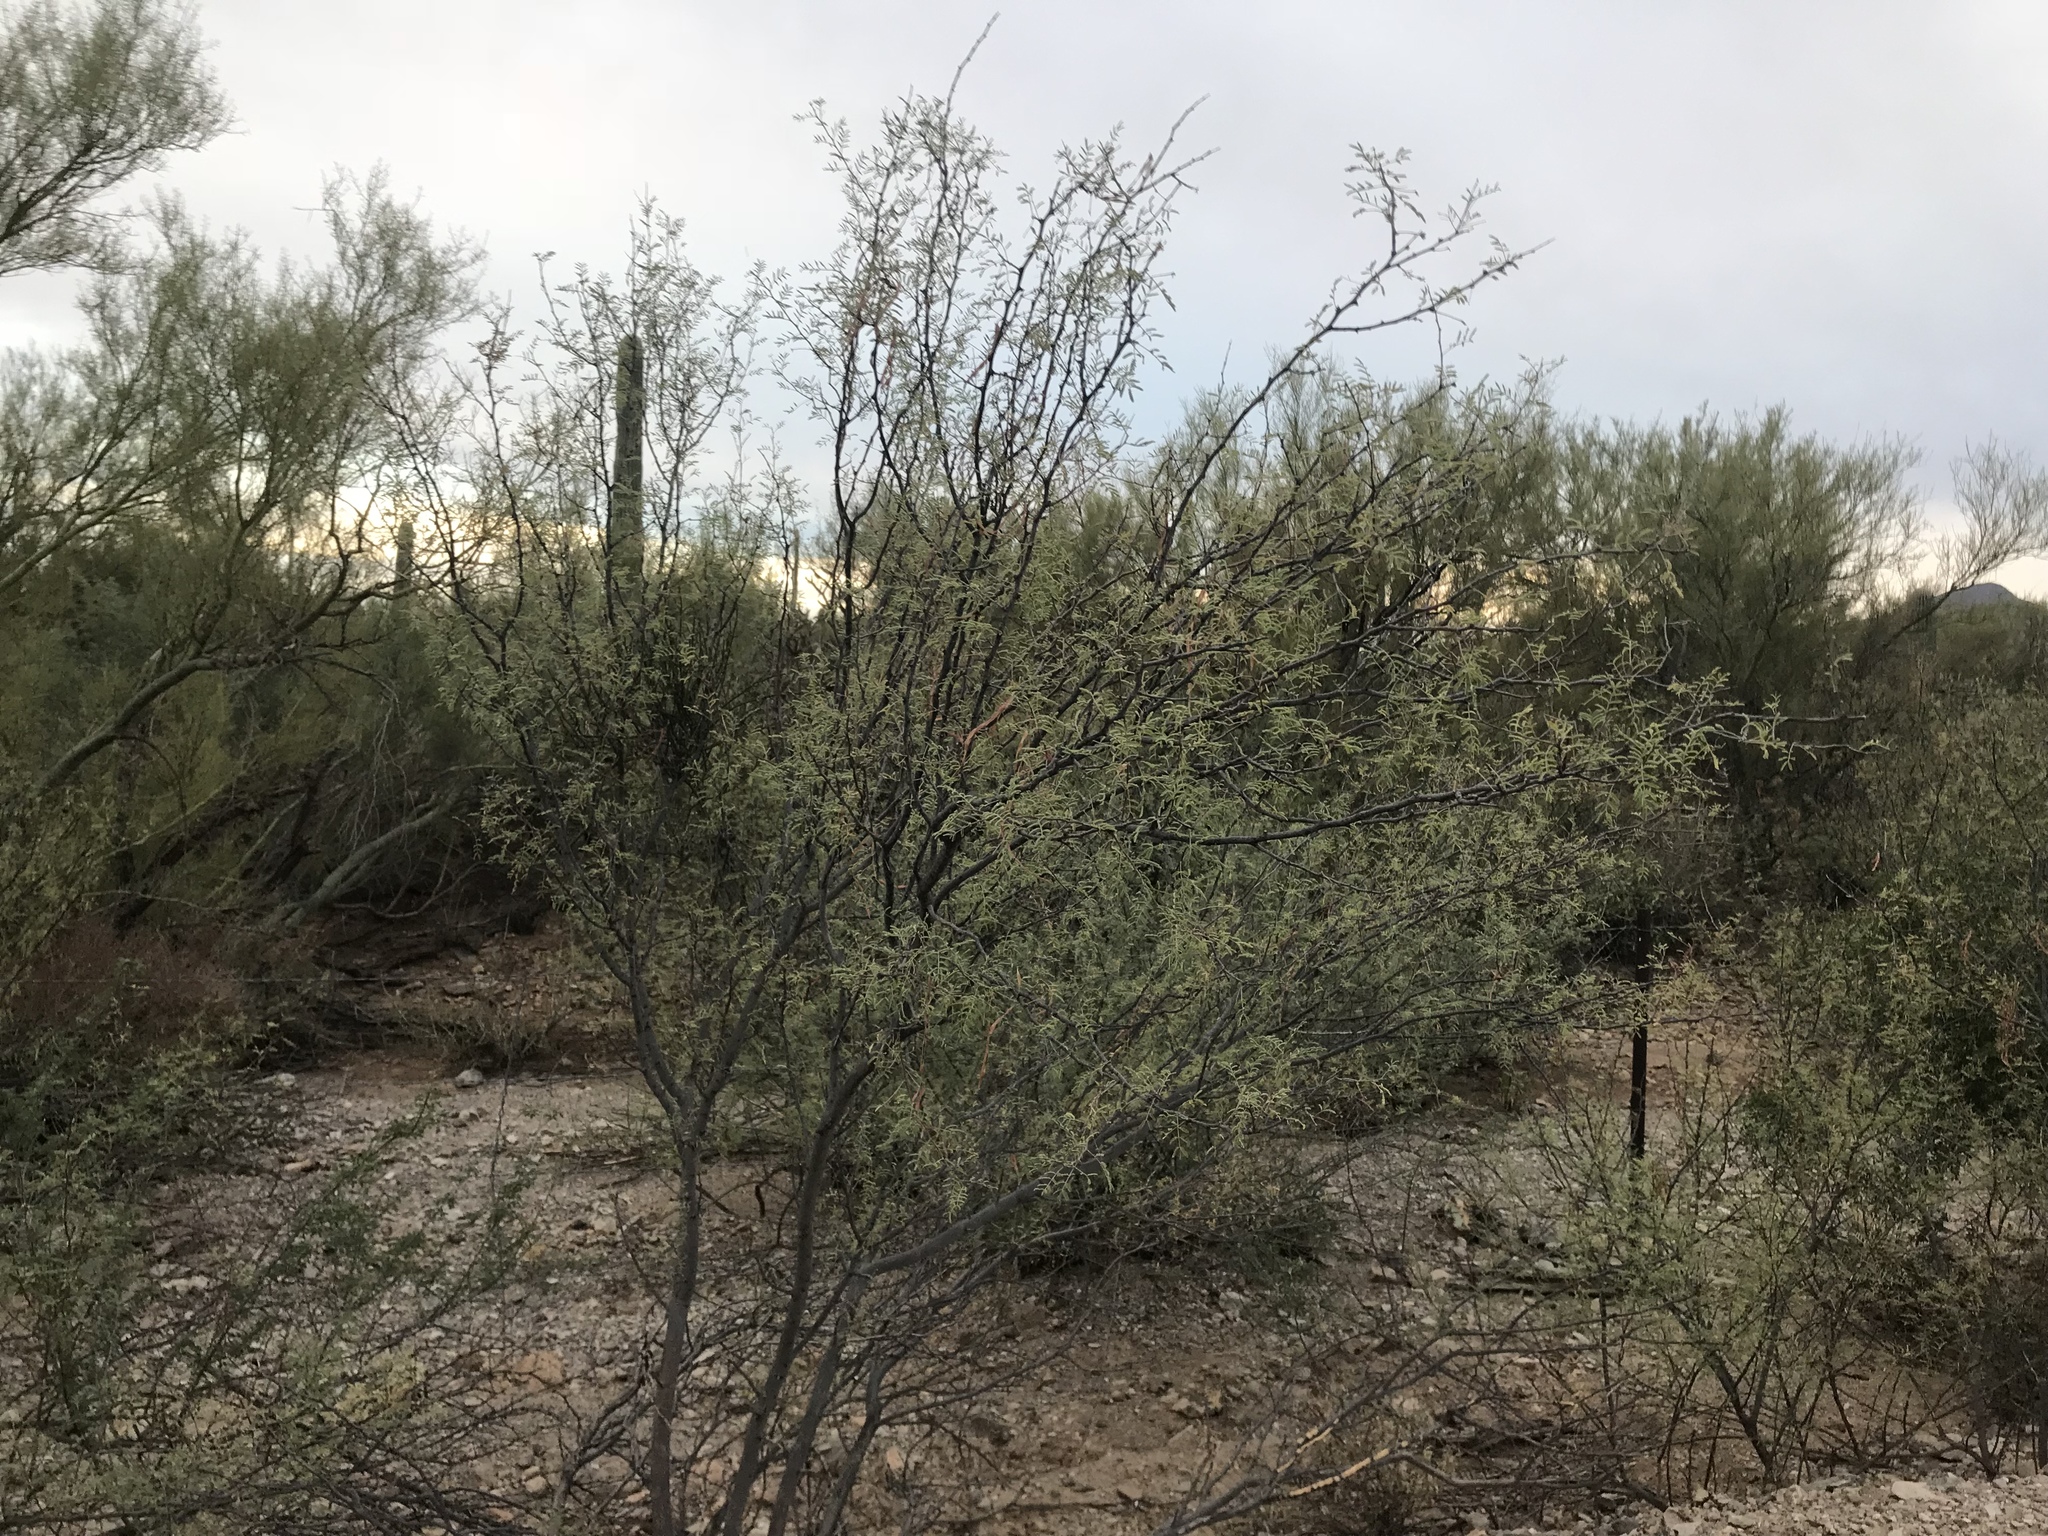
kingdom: Plantae
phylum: Tracheophyta
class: Magnoliopsida
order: Fabales
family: Fabaceae
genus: Vachellia
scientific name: Vachellia constricta
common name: Mescat acacia
